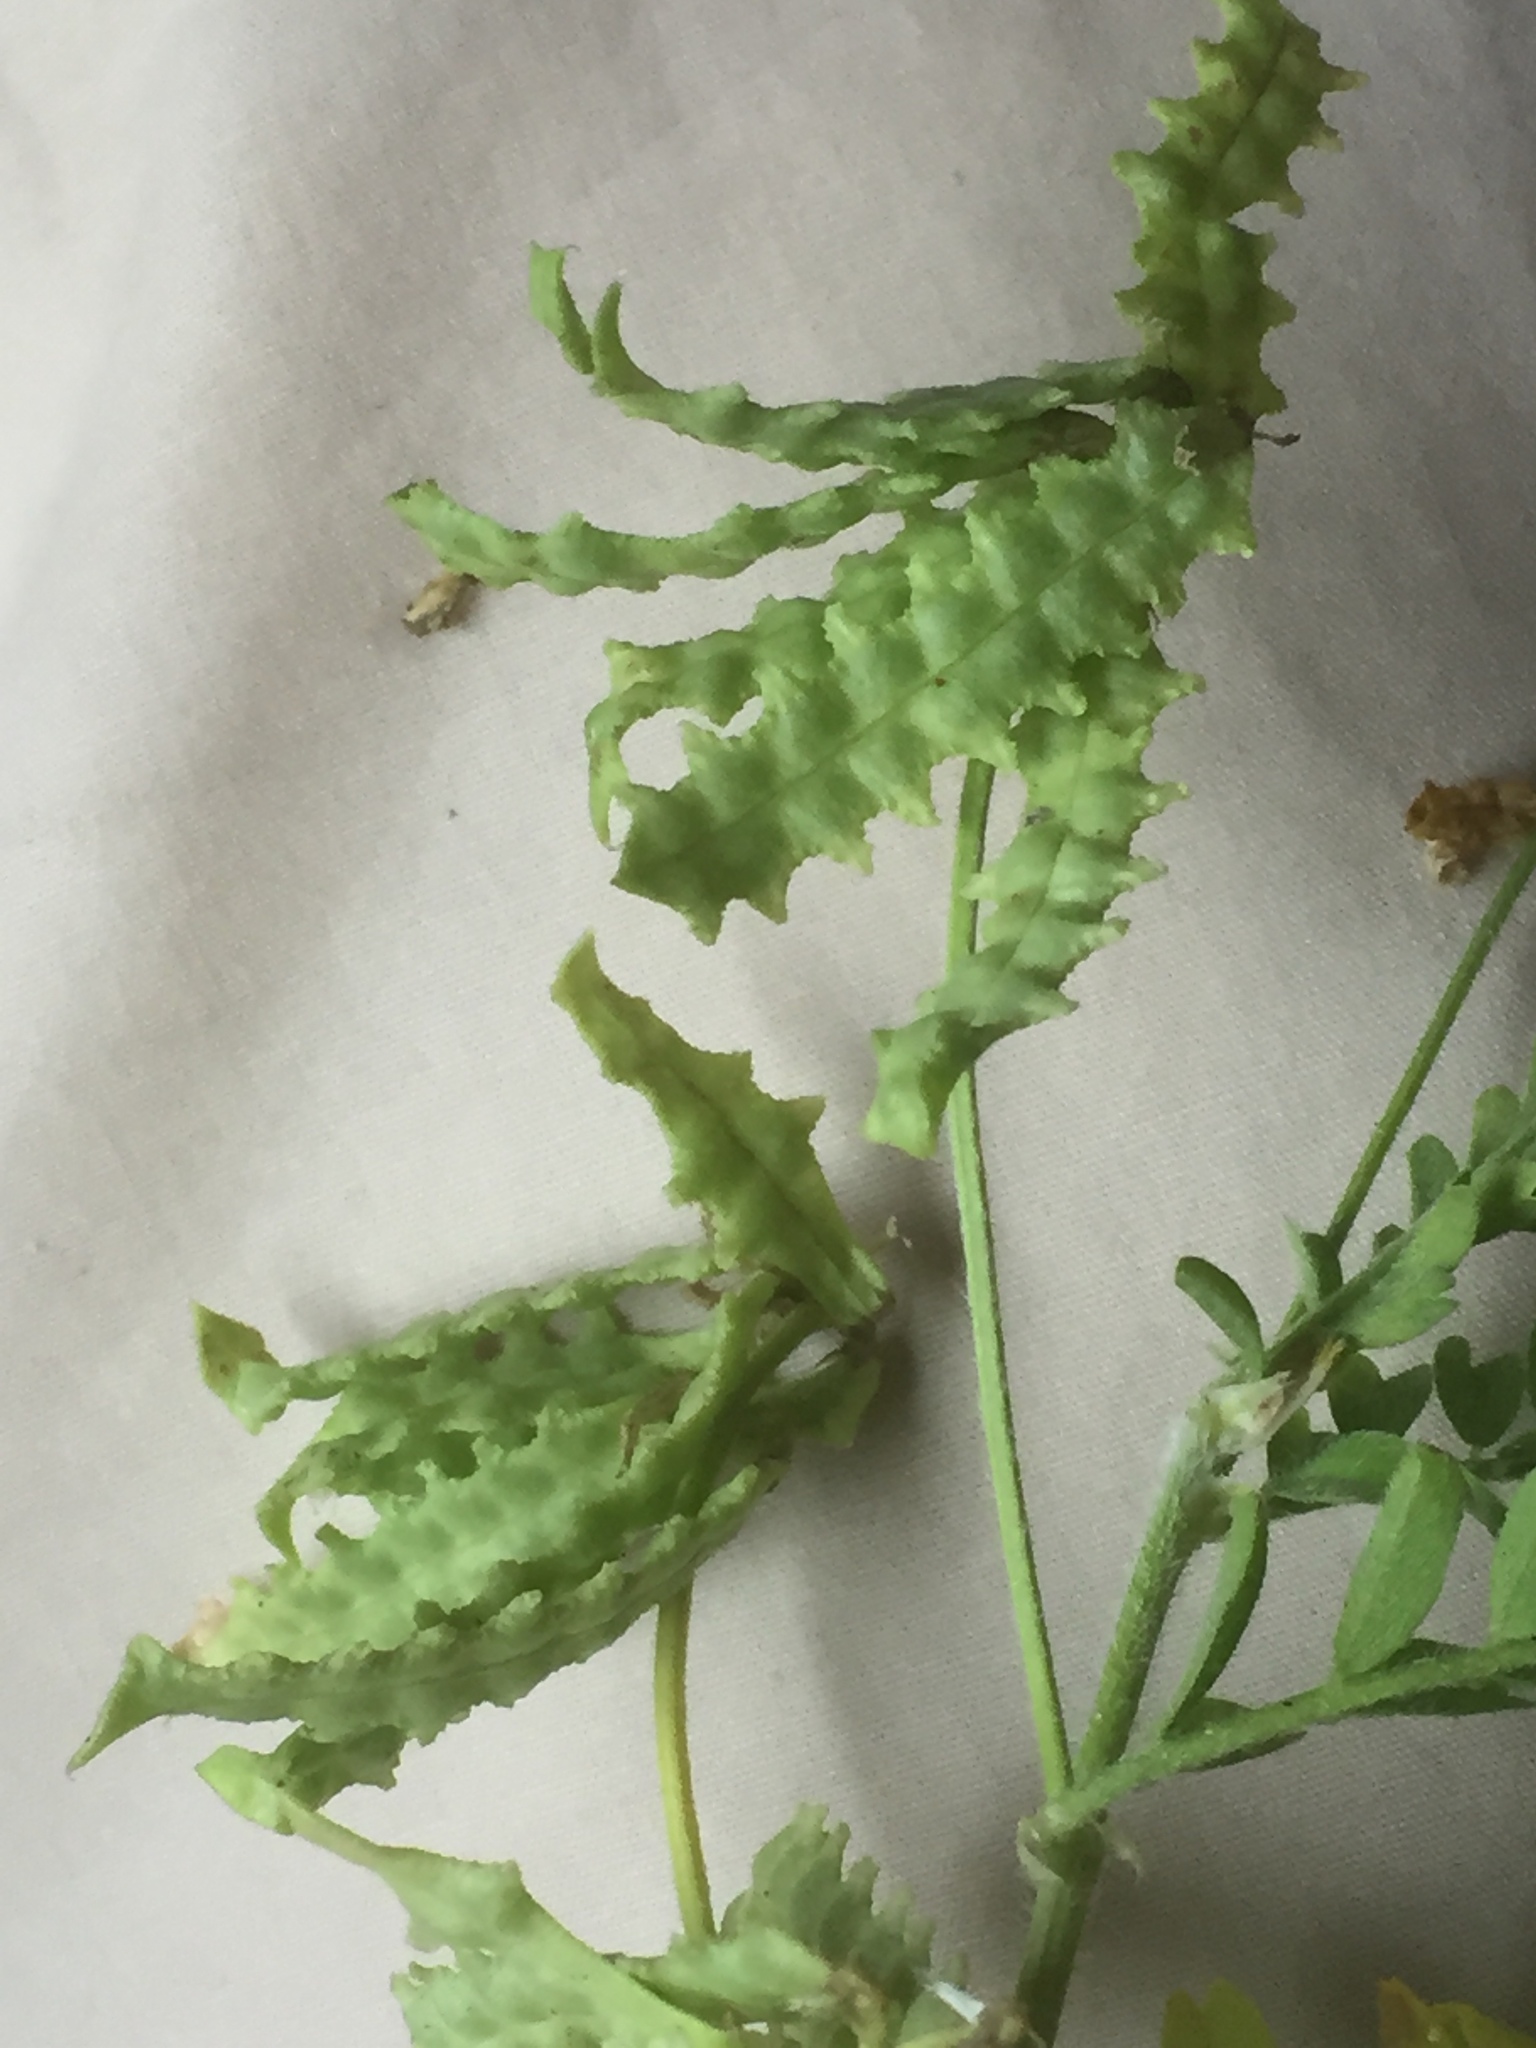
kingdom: Plantae
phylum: Tracheophyta
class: Magnoliopsida
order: Fabales
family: Fabaceae
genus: Biserrula
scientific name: Biserrula pelecinus
